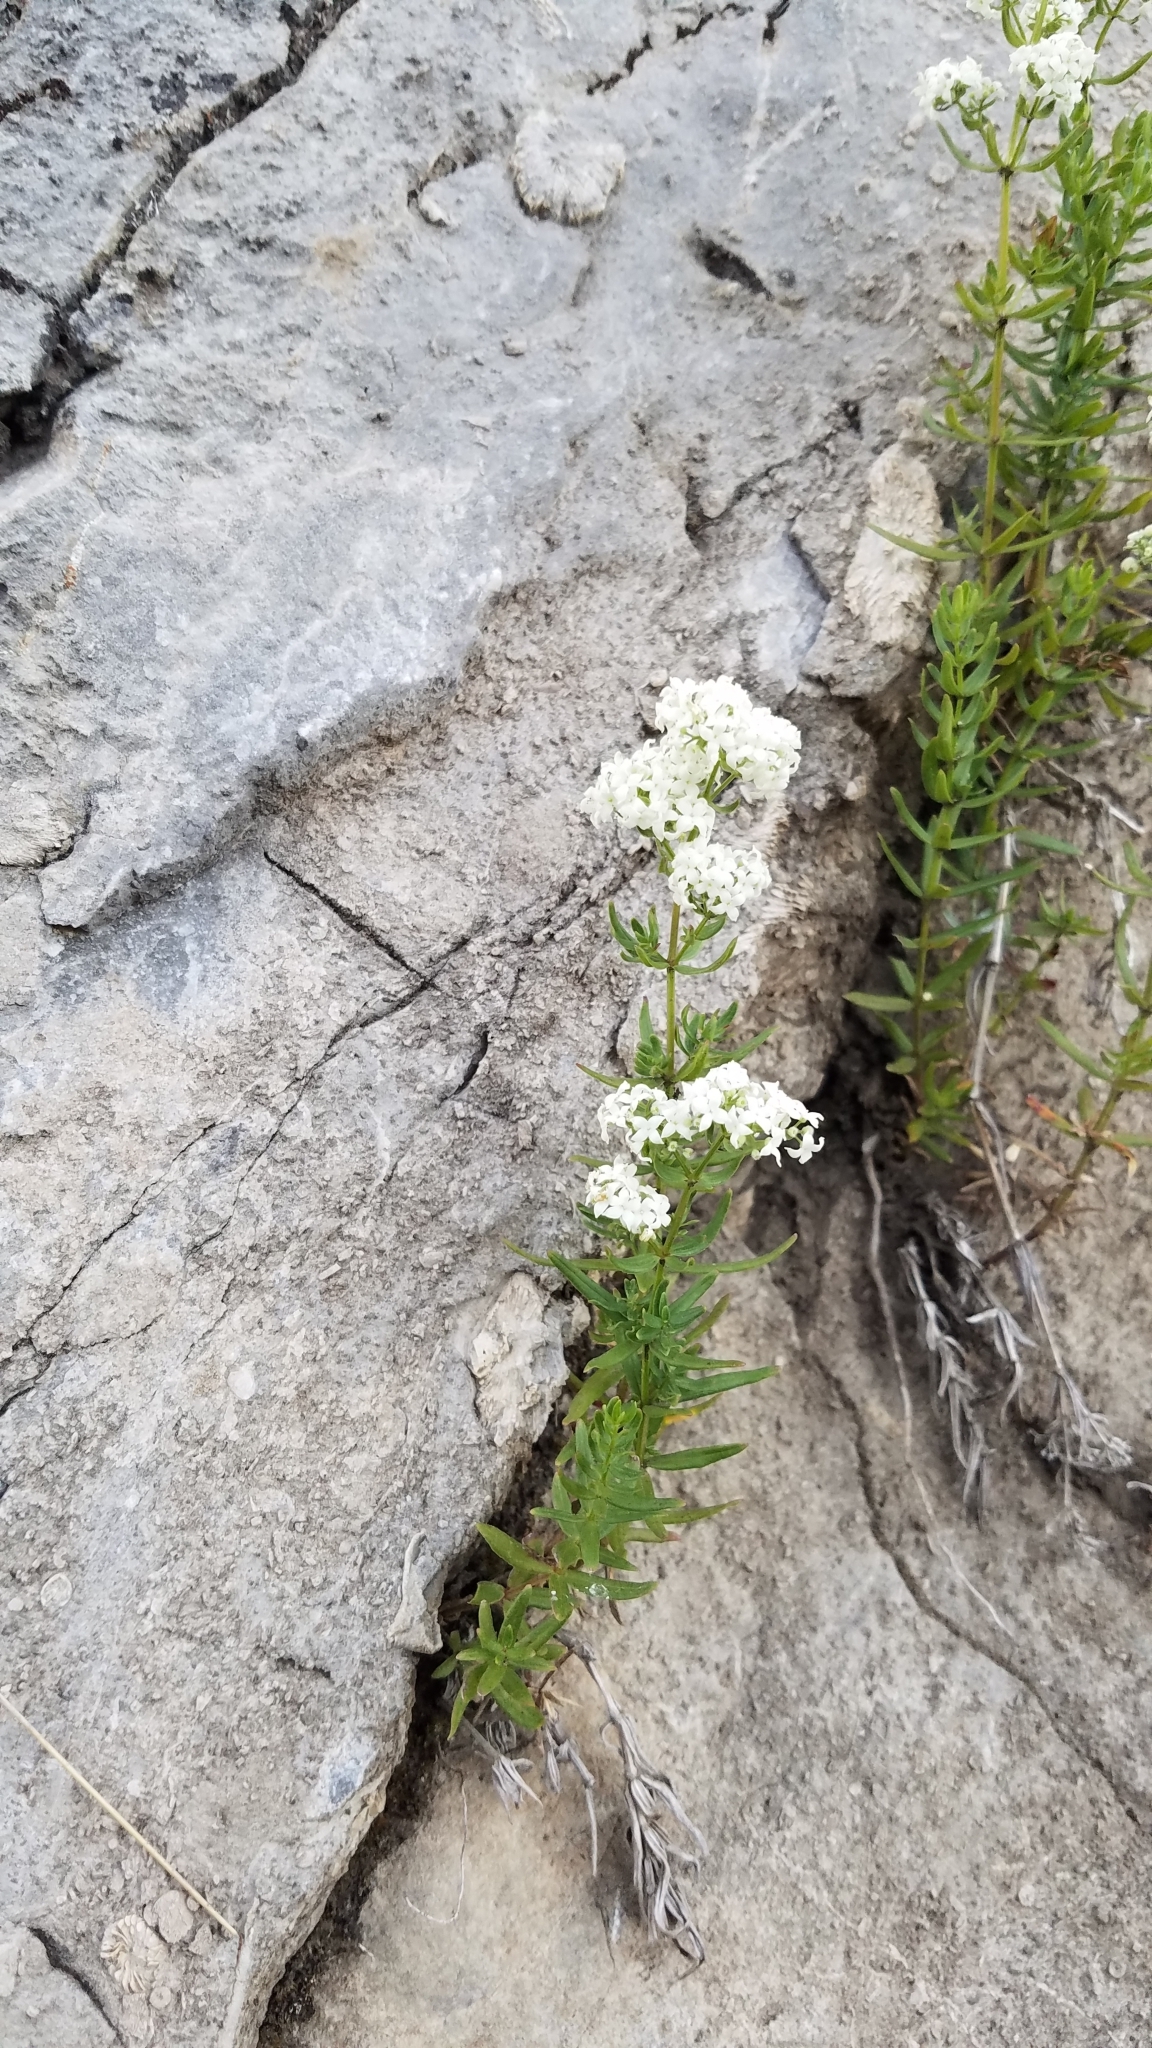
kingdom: Plantae
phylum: Tracheophyta
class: Magnoliopsida
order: Gentianales
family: Rubiaceae
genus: Galium
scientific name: Galium boreale
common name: Northern bedstraw
